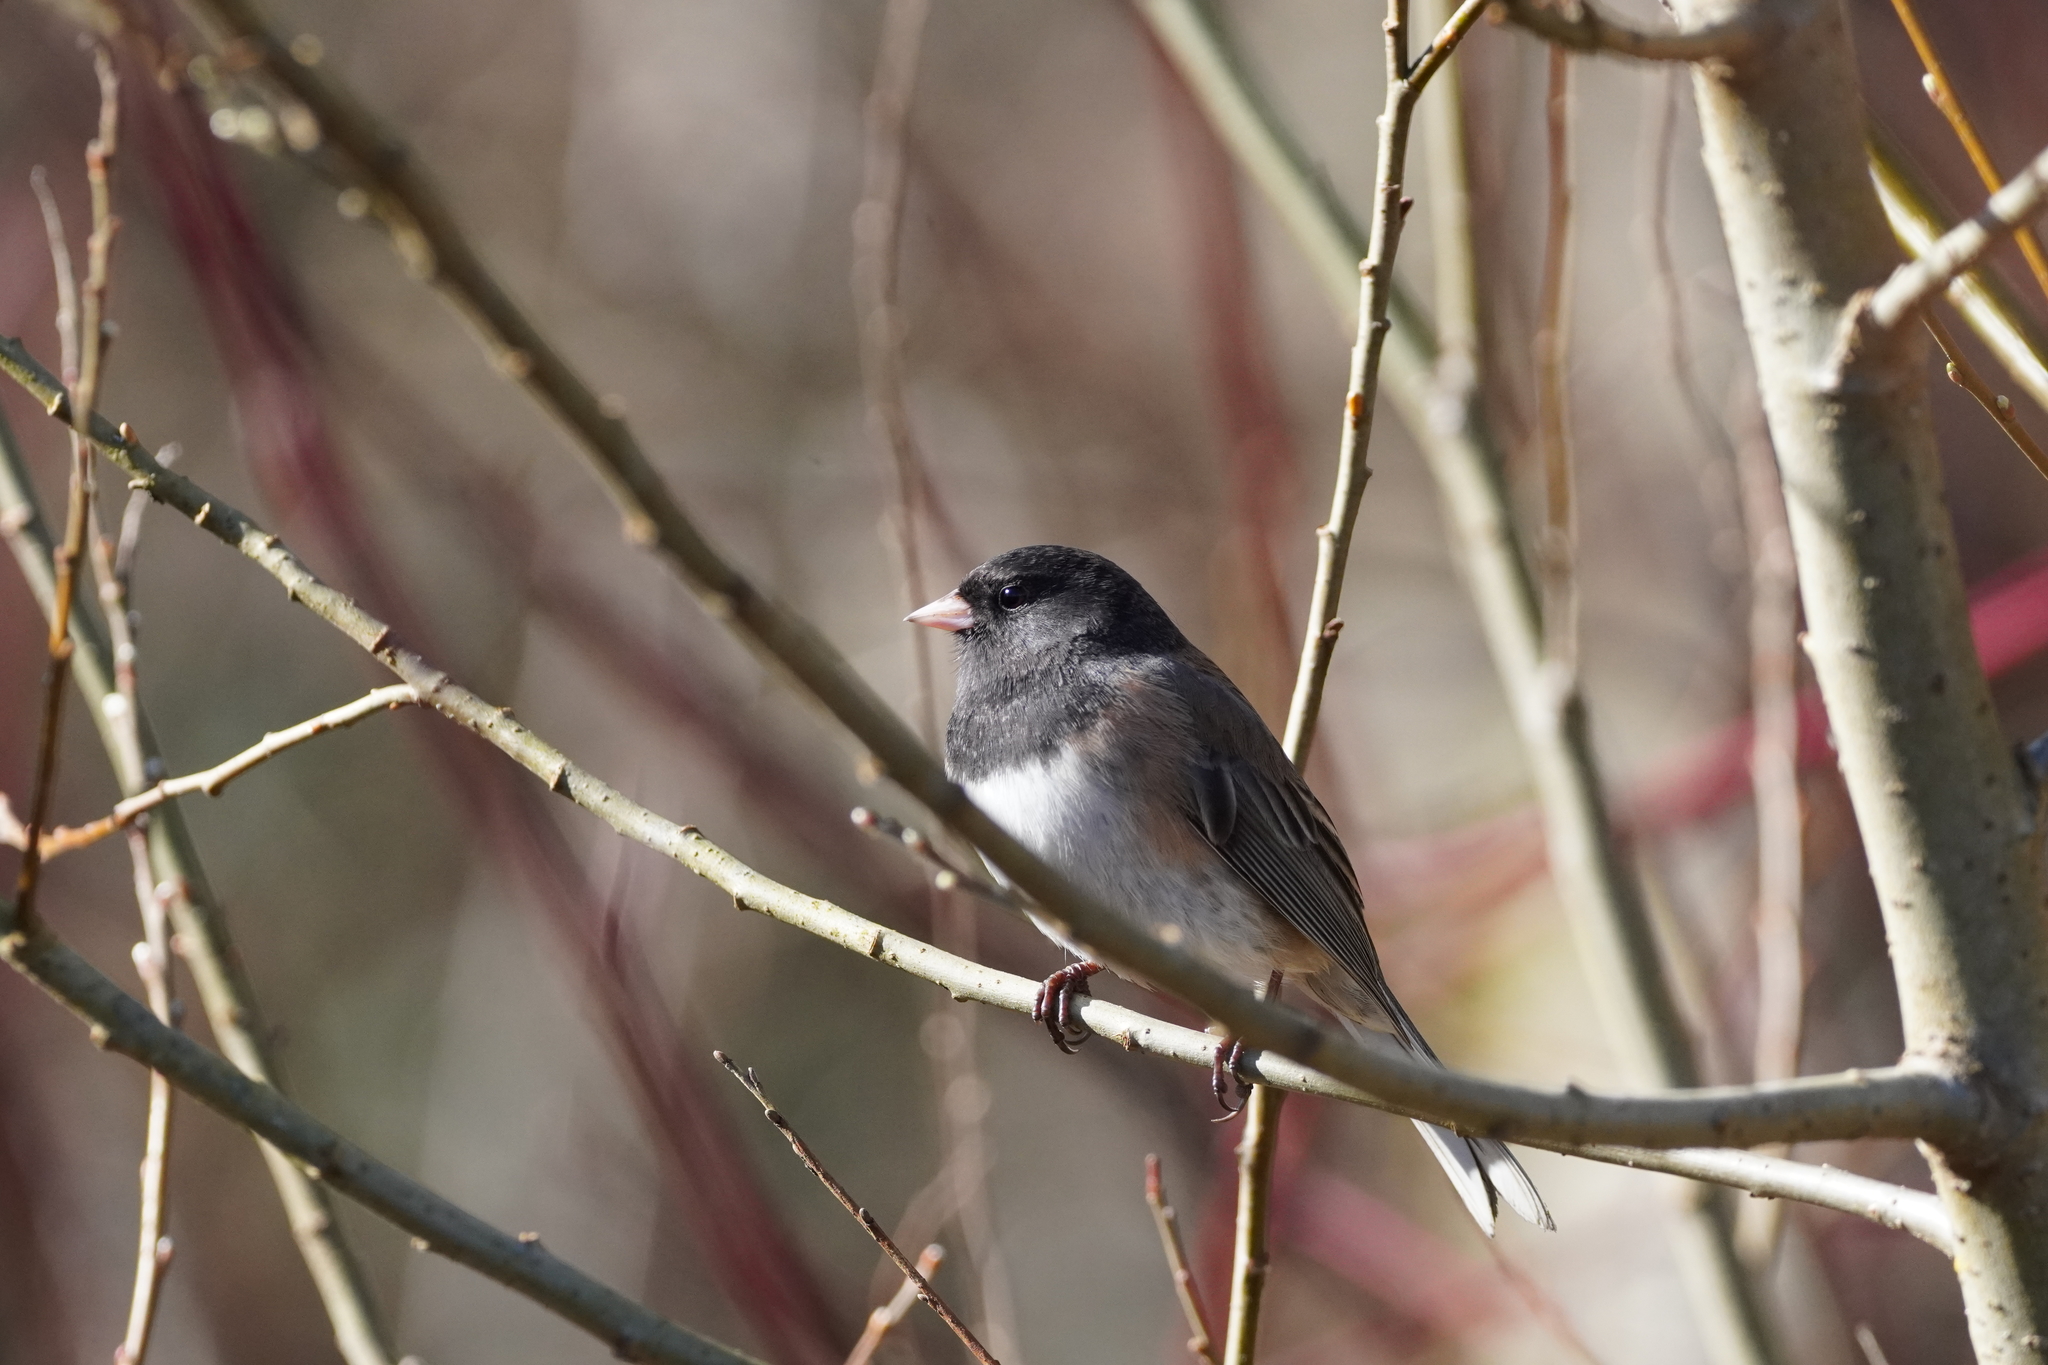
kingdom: Animalia
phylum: Chordata
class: Aves
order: Passeriformes
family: Passerellidae
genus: Junco
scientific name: Junco hyemalis
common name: Dark-eyed junco
